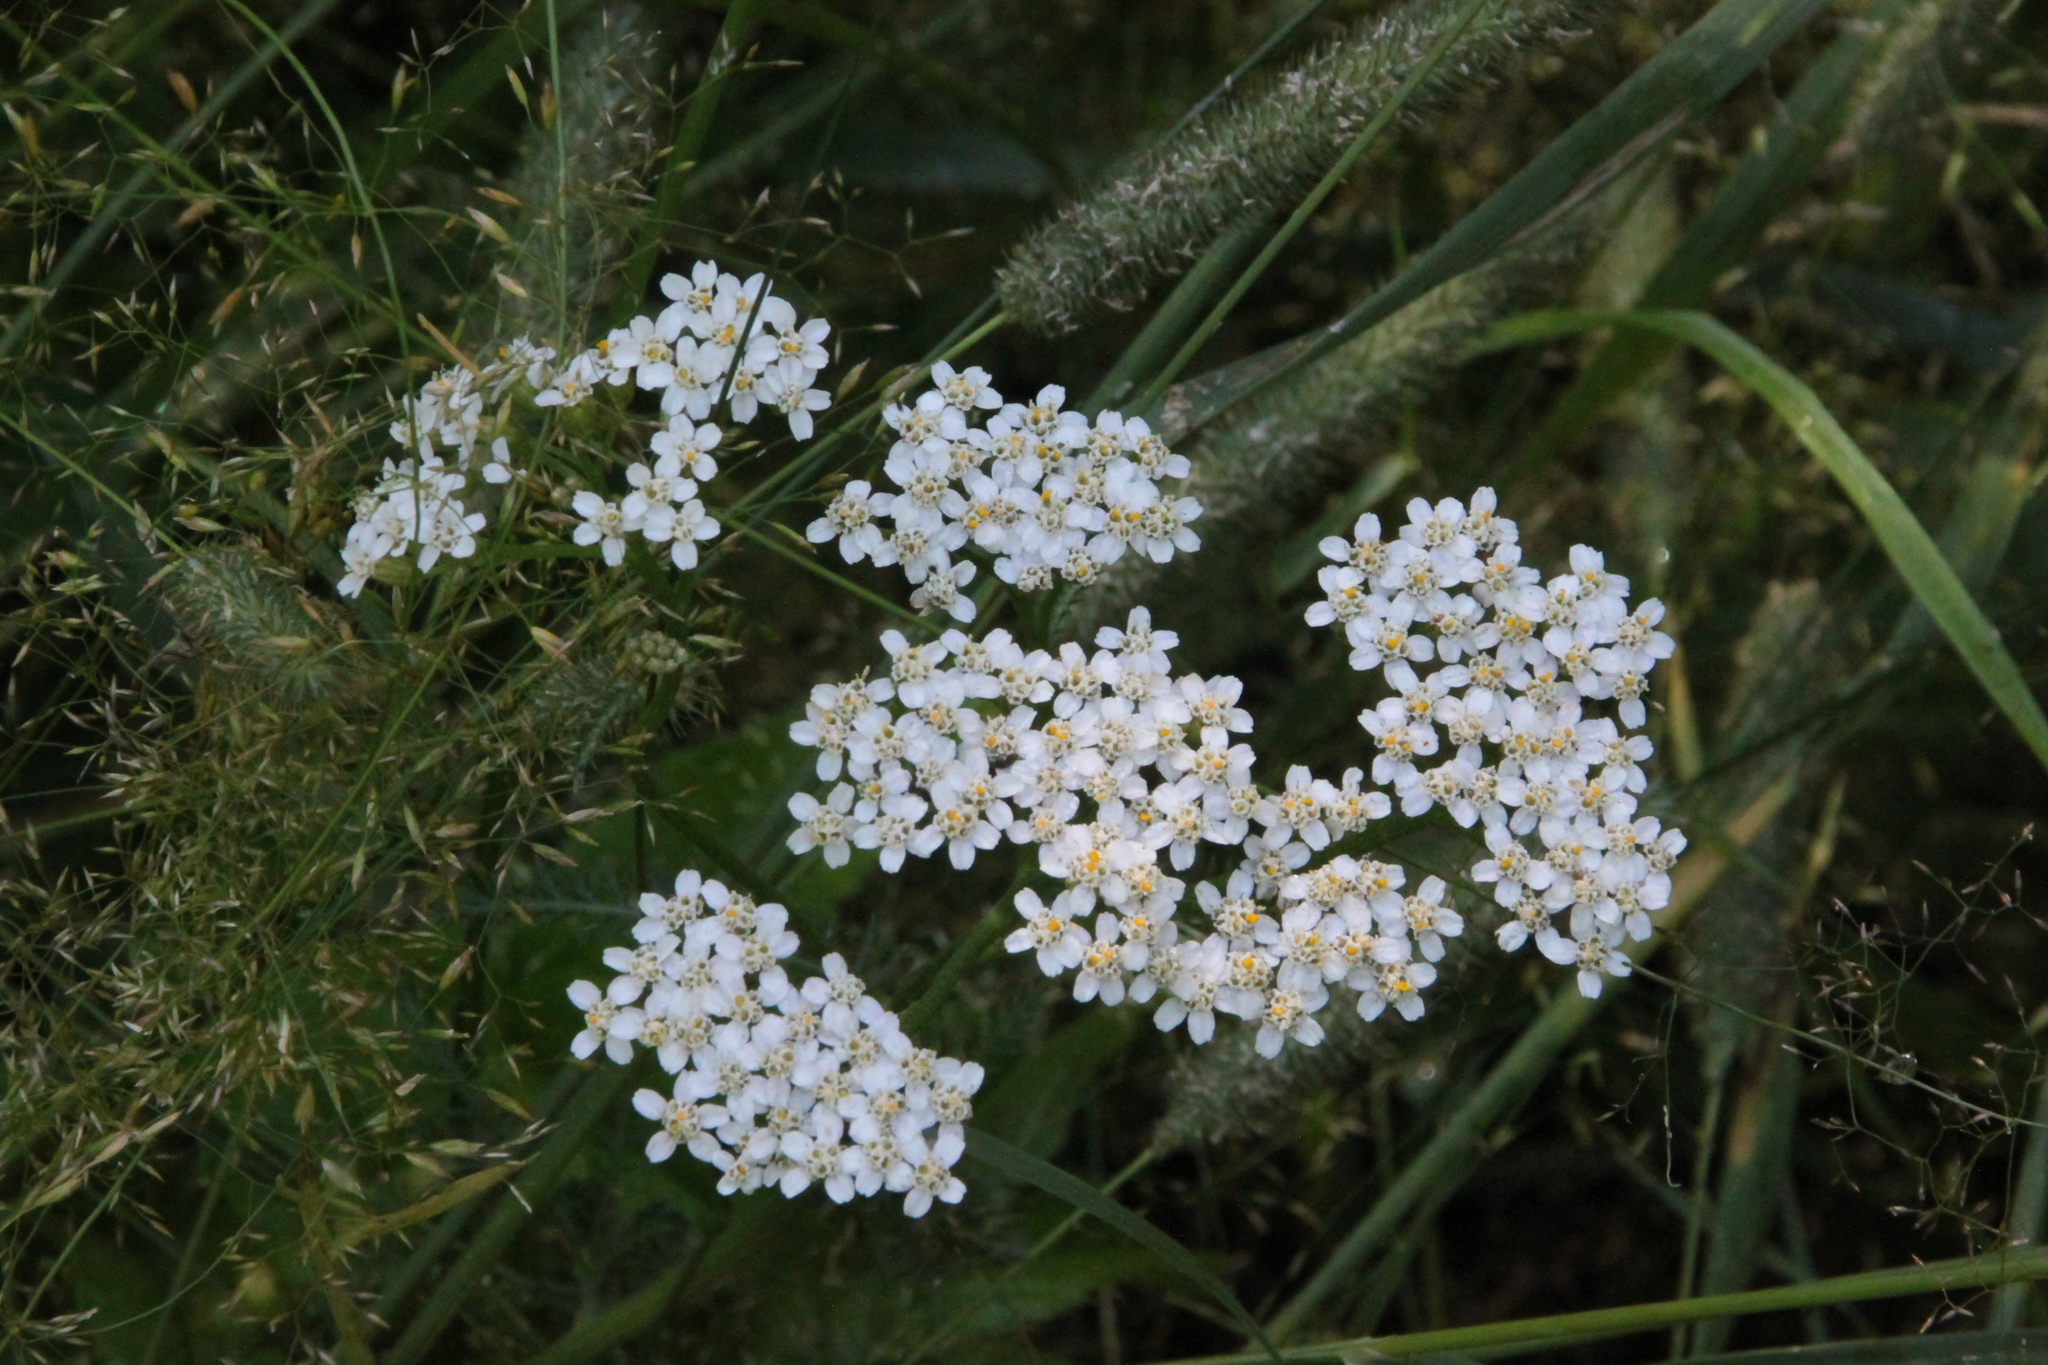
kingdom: Plantae
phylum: Tracheophyta
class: Magnoliopsida
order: Asterales
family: Asteraceae
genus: Achillea
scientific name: Achillea millefolium
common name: Yarrow
